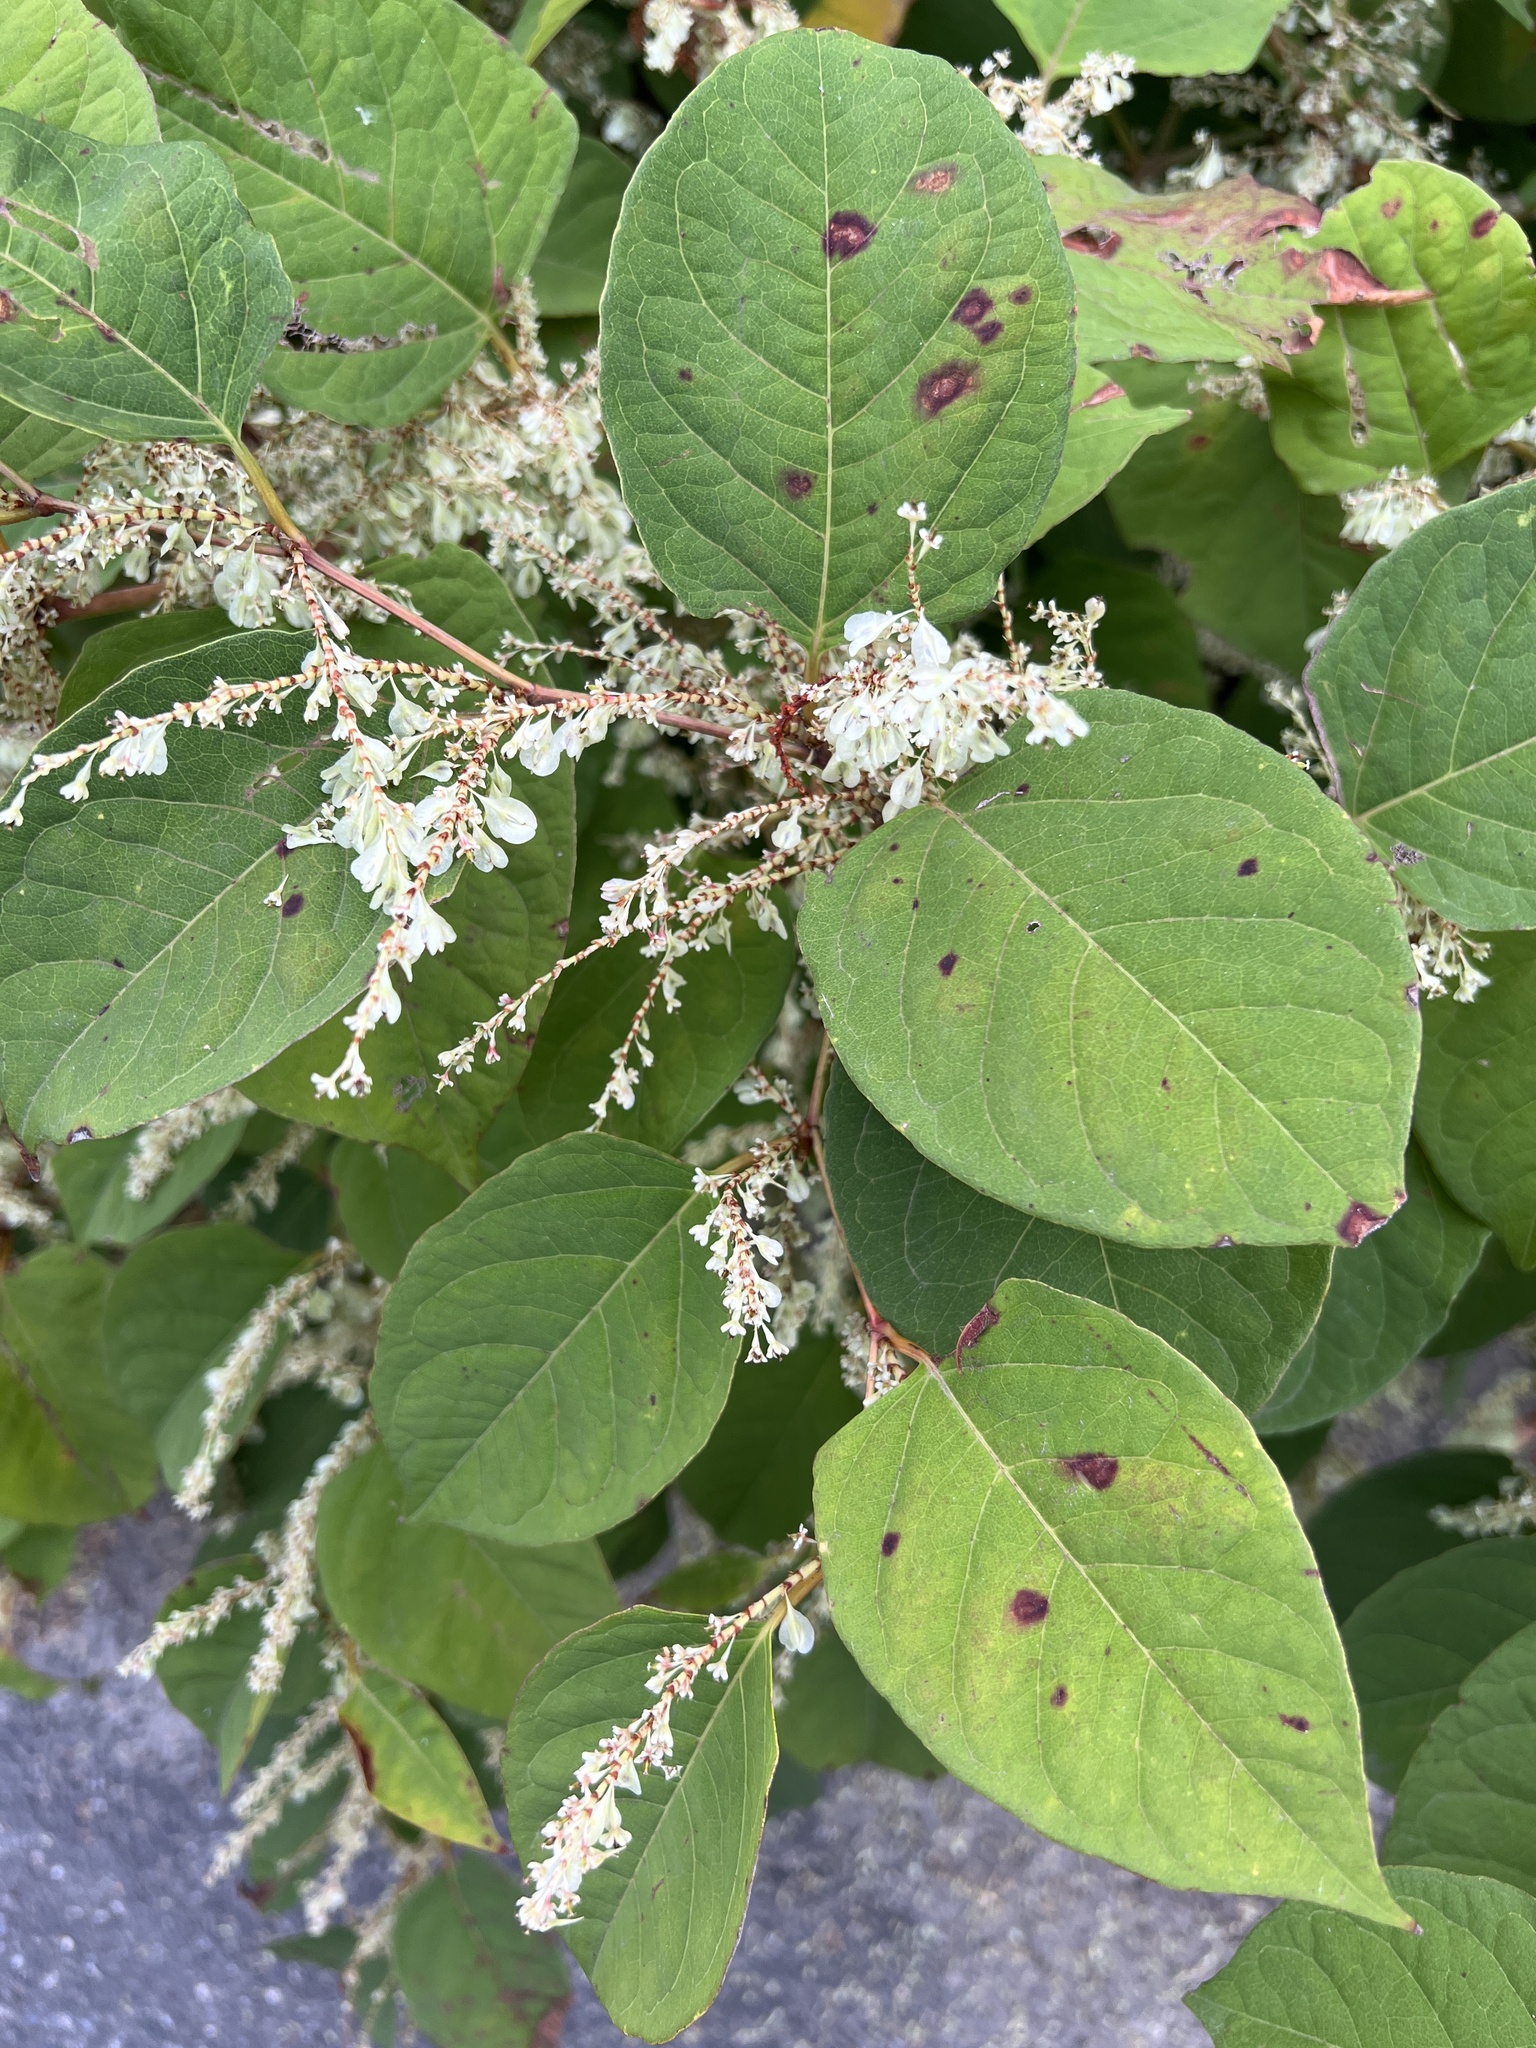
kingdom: Plantae
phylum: Tracheophyta
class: Magnoliopsida
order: Caryophyllales
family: Polygonaceae
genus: Reynoutria
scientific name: Reynoutria japonica
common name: Japanese knotweed
